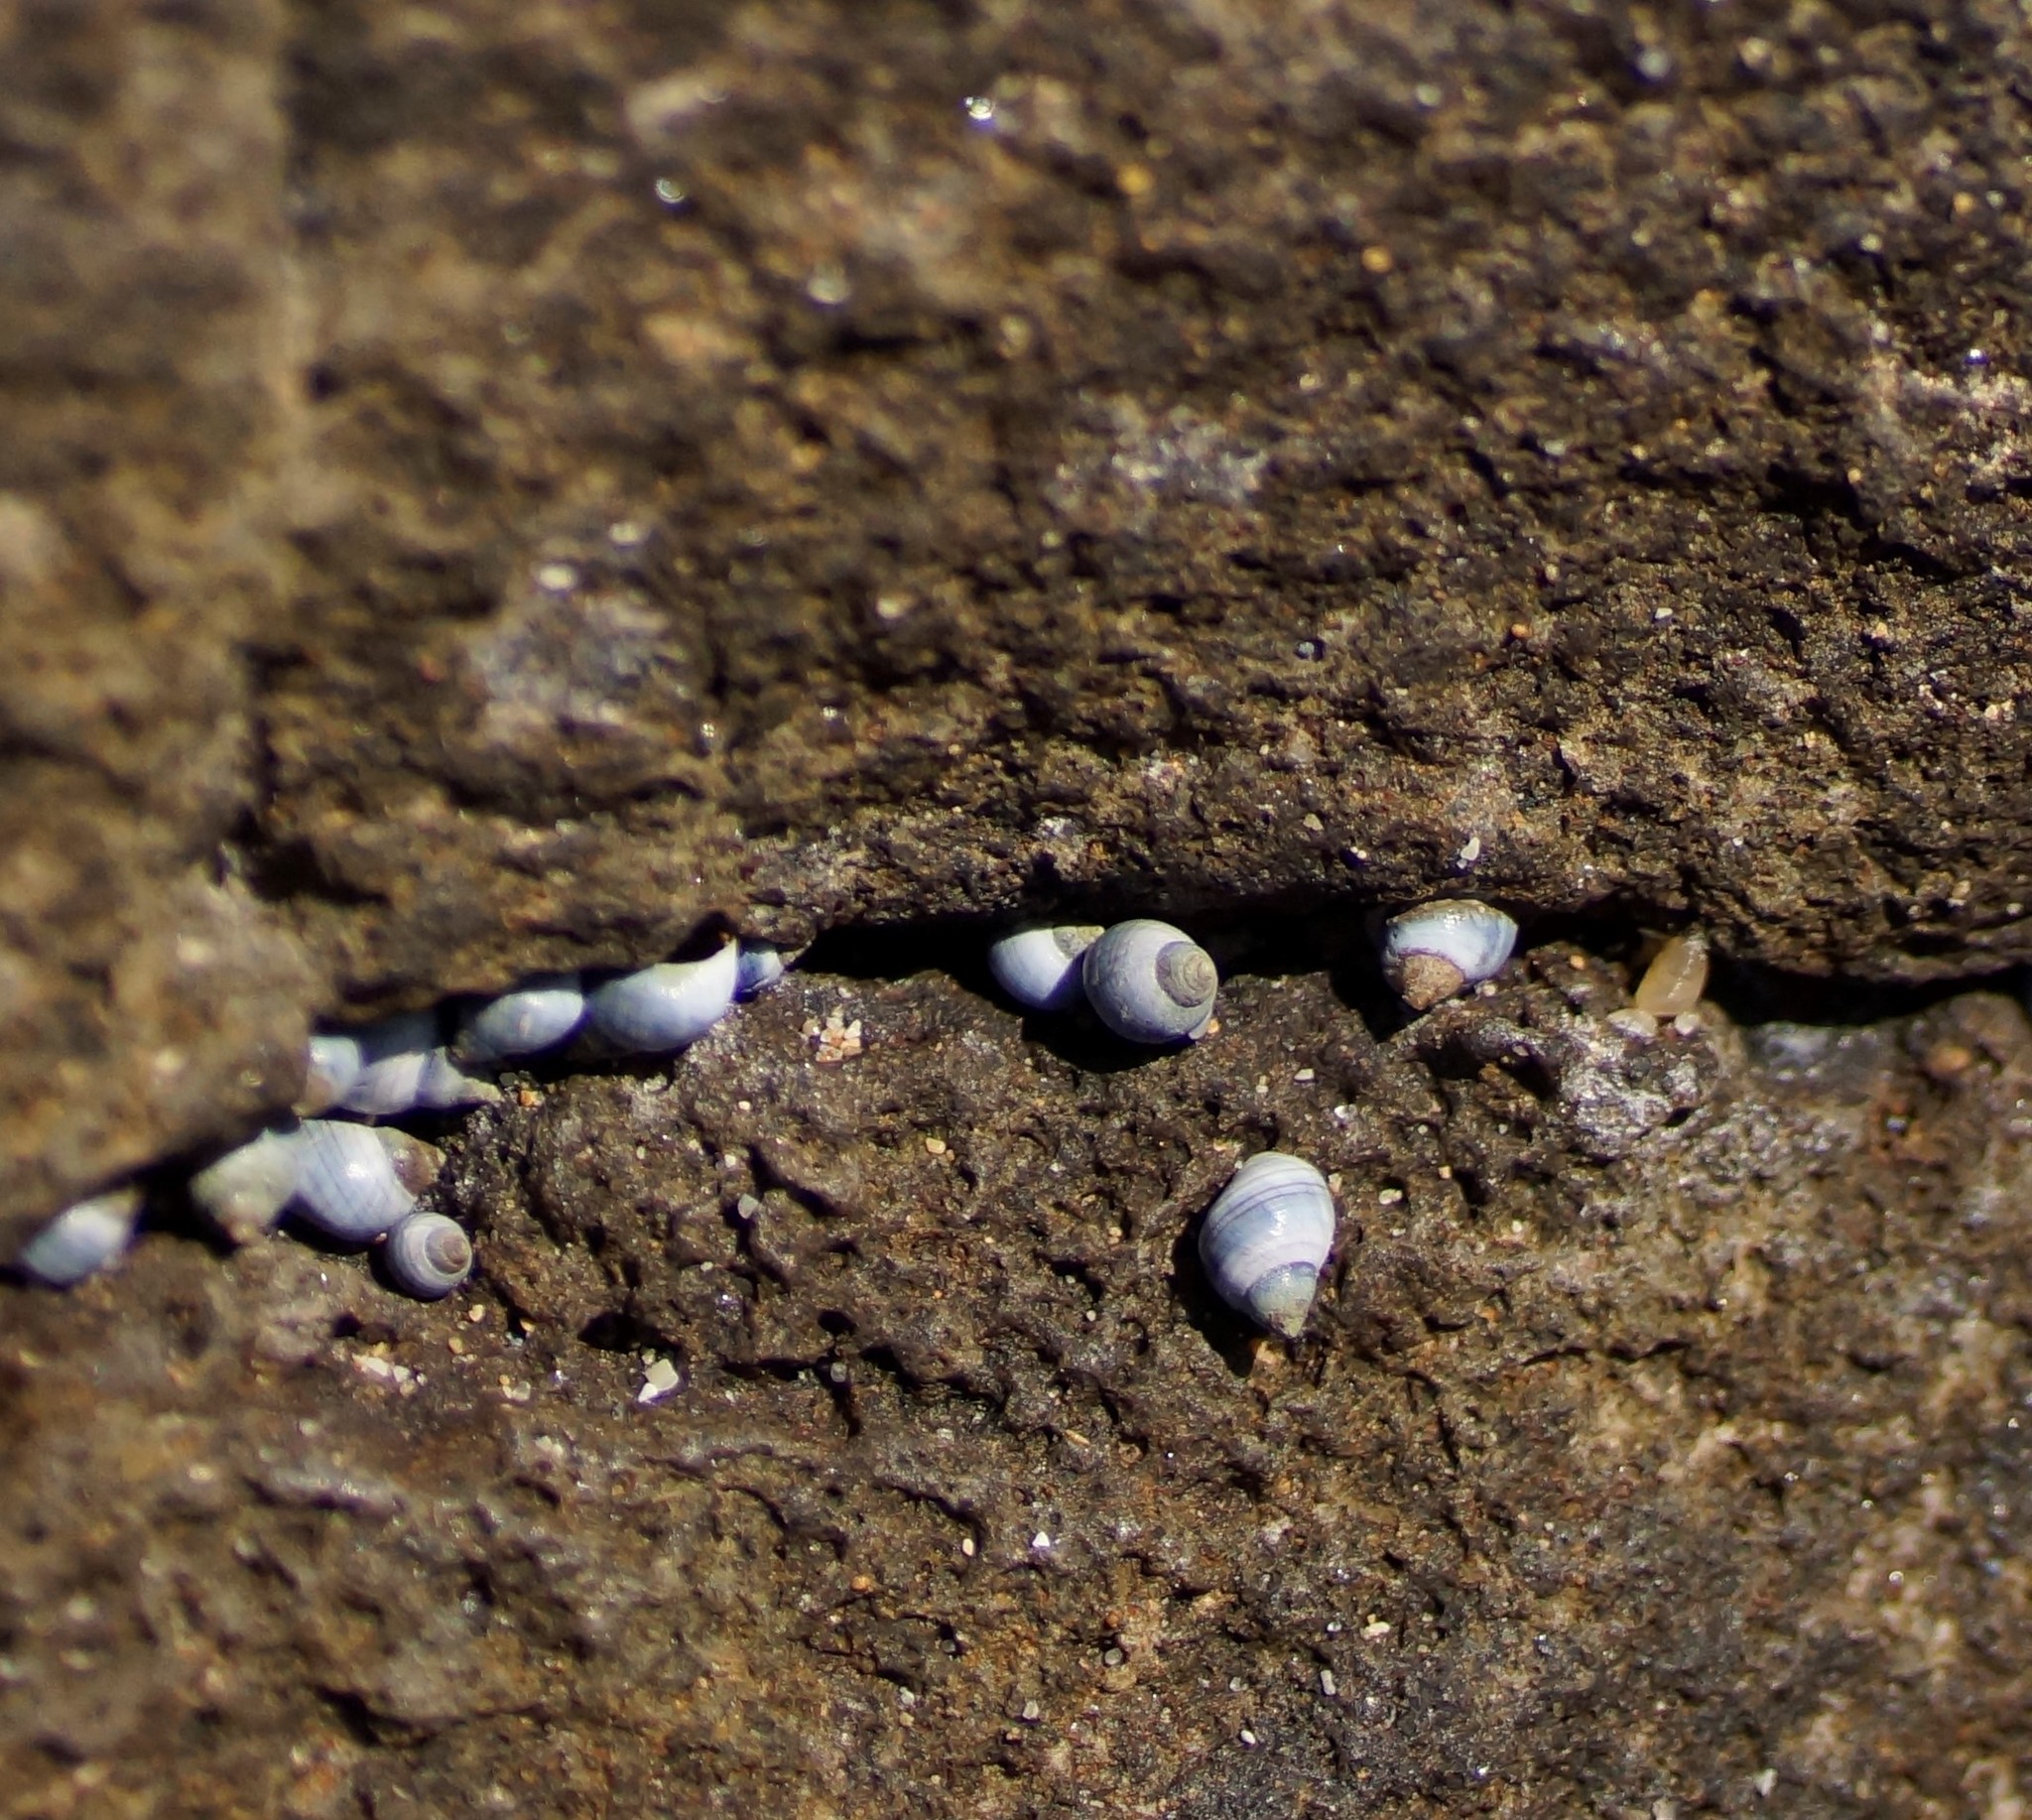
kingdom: Animalia
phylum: Mollusca
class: Gastropoda
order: Littorinimorpha
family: Littorinidae
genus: Austrolittorina
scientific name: Austrolittorina unifasciata
